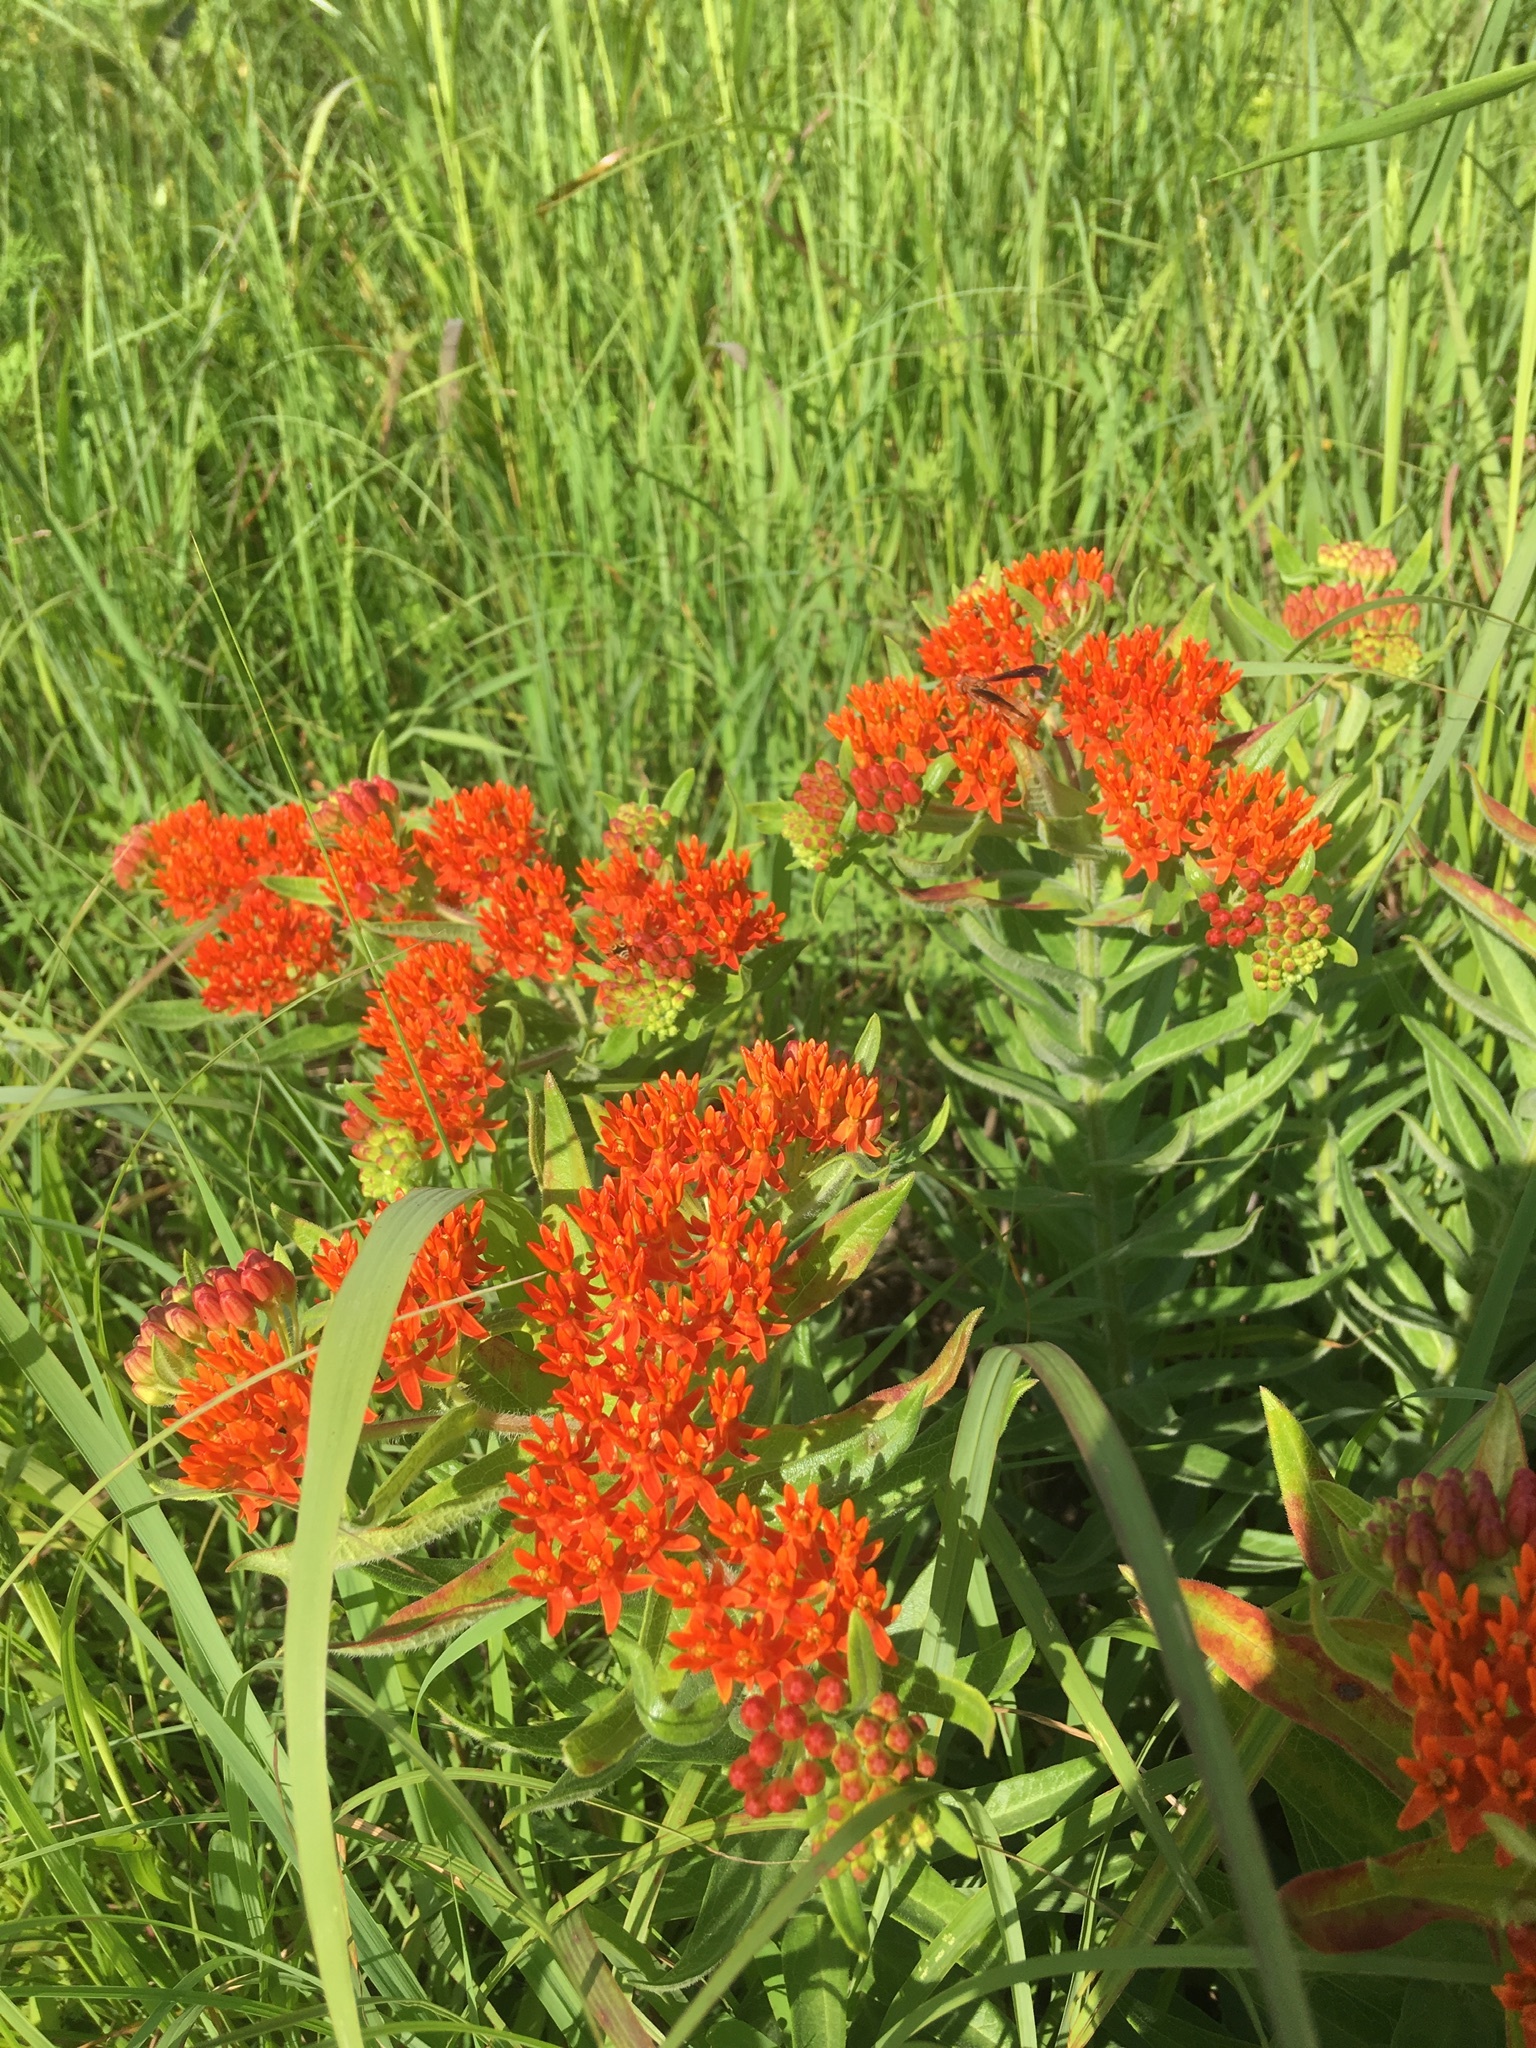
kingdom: Plantae
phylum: Tracheophyta
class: Magnoliopsida
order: Gentianales
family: Apocynaceae
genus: Asclepias
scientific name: Asclepias tuberosa
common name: Butterfly milkweed
